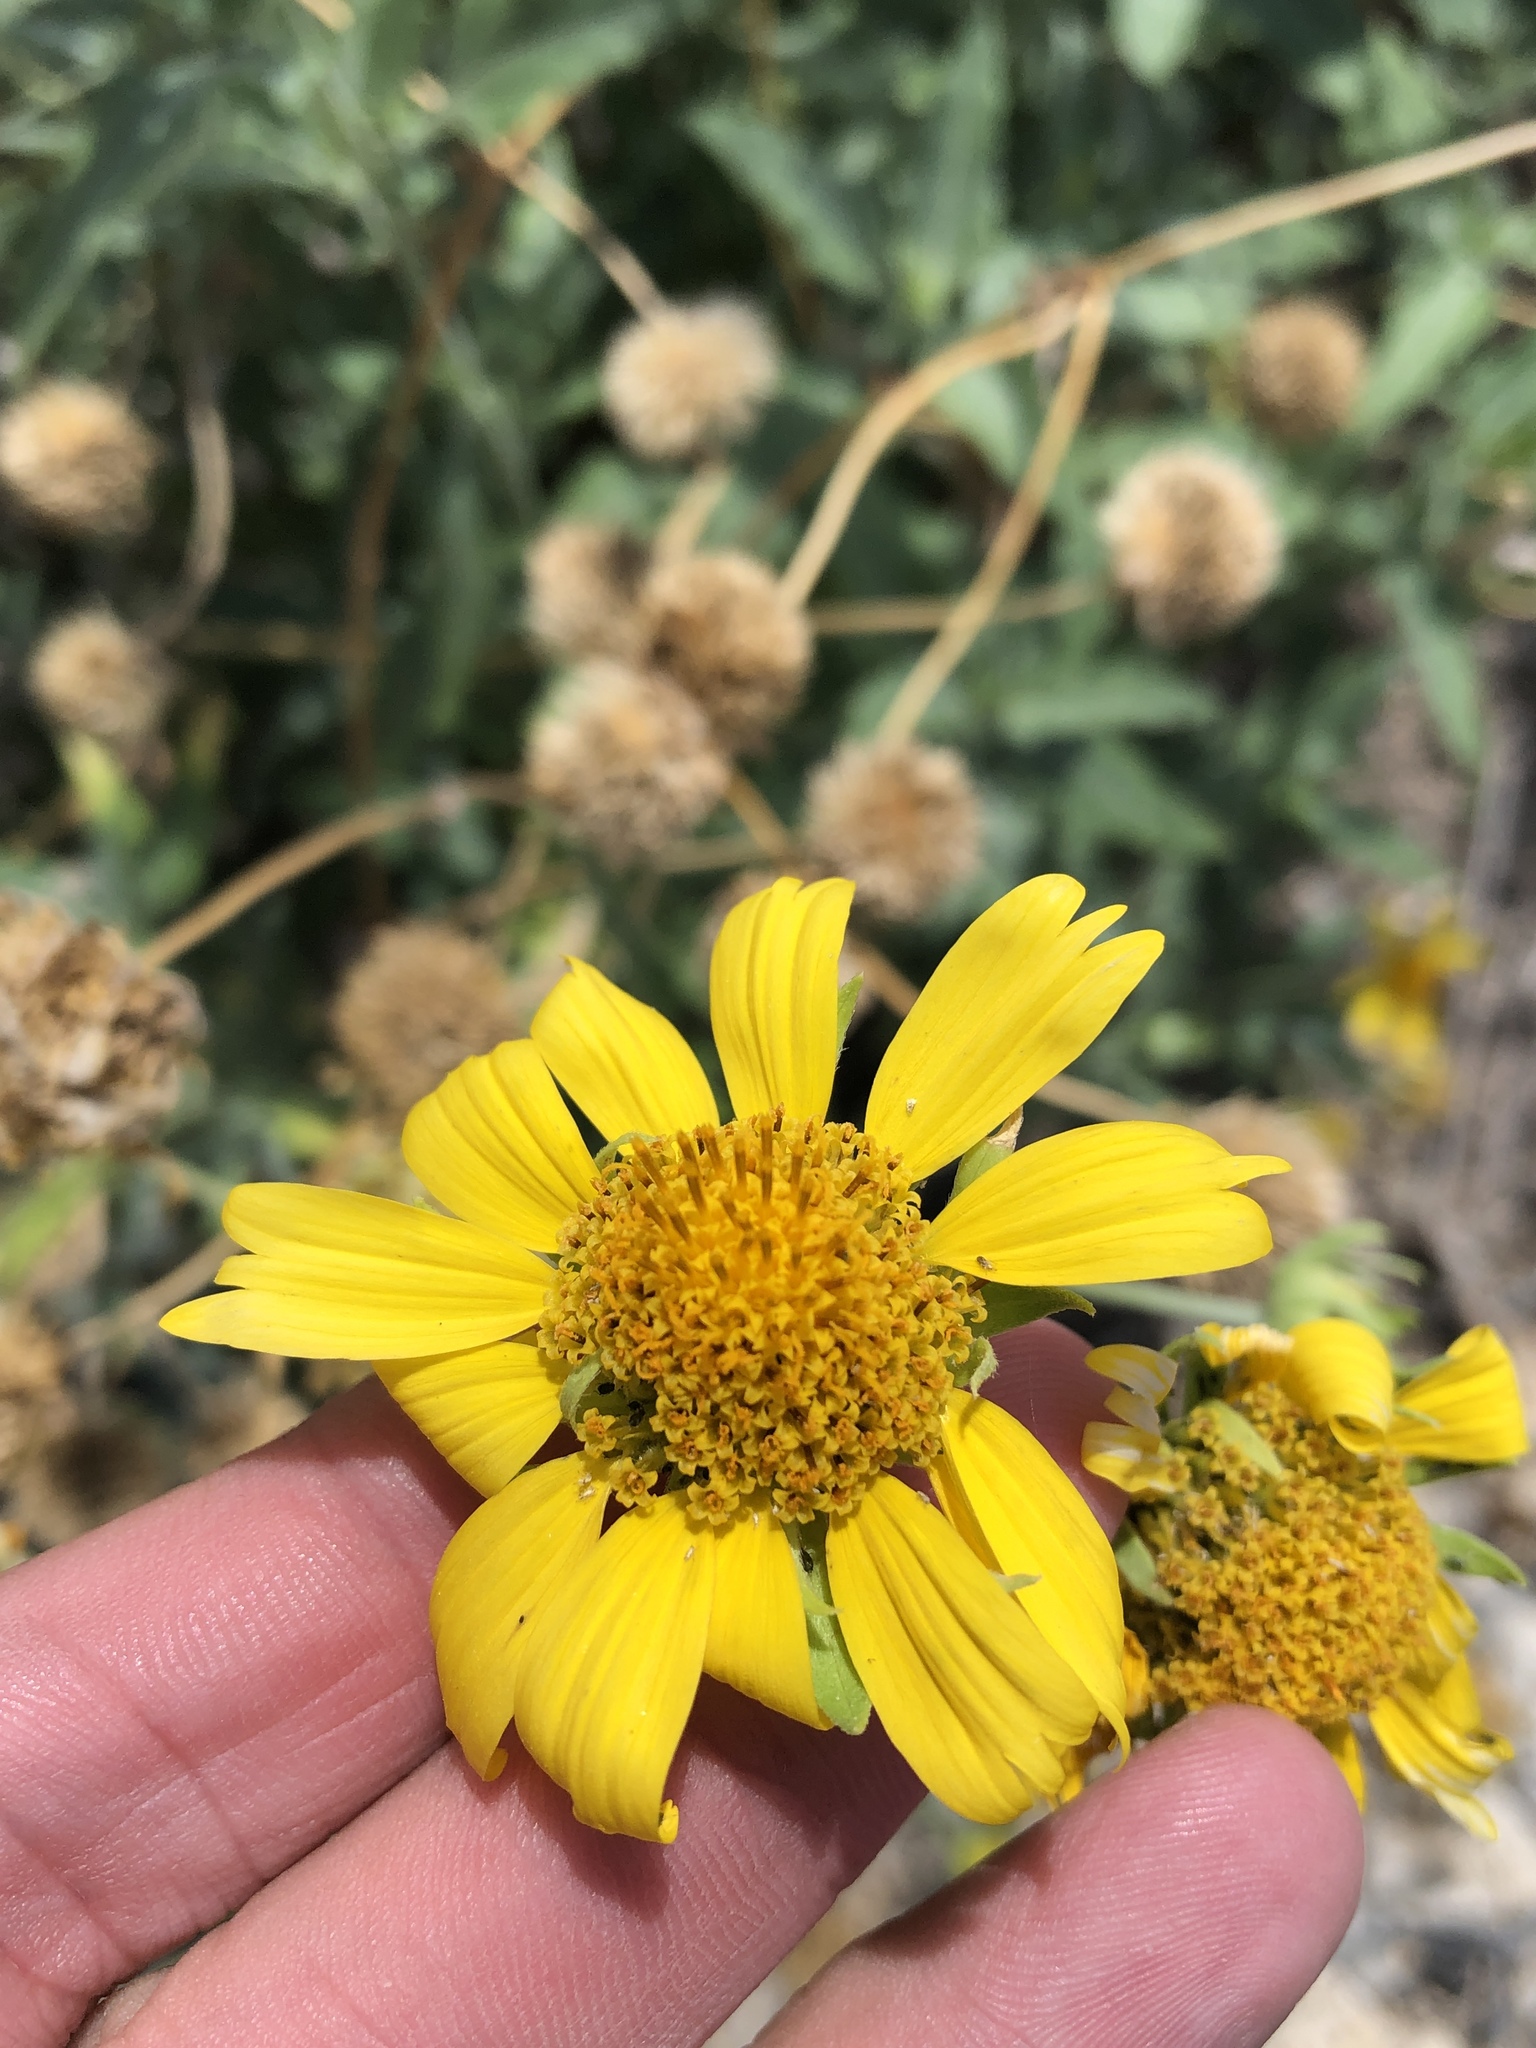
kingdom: Plantae
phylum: Tracheophyta
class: Magnoliopsida
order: Asterales
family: Asteraceae
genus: Verbesina
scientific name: Verbesina encelioides
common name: Golden crownbeard
